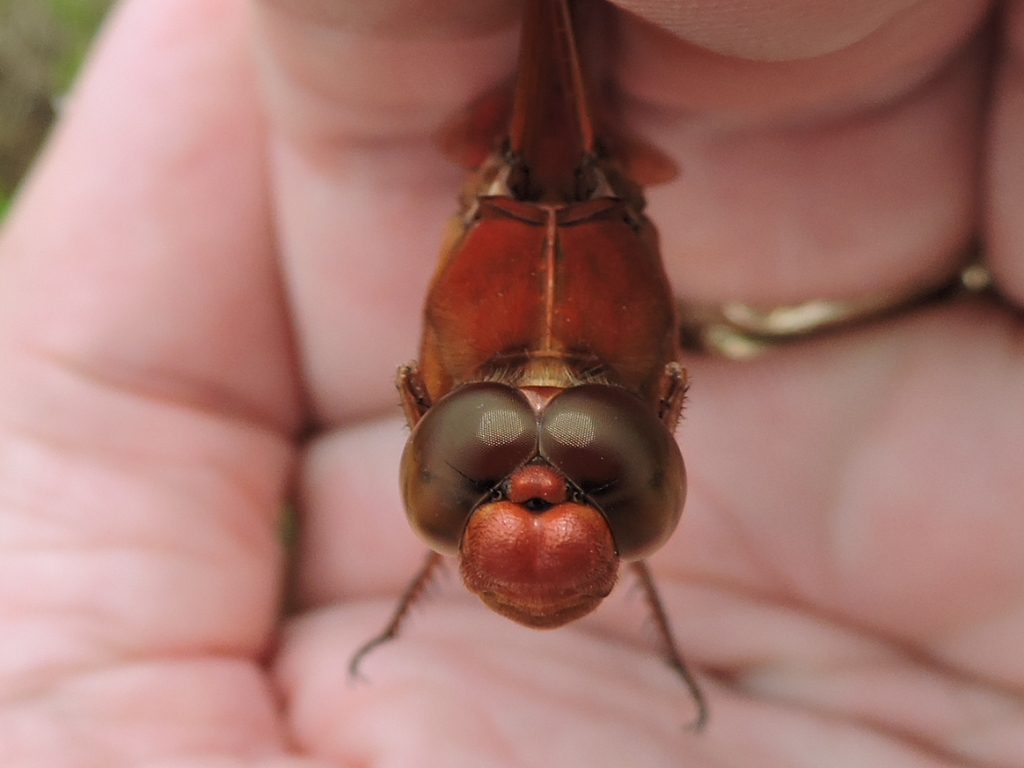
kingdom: Animalia
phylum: Arthropoda
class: Insecta
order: Odonata
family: Libellulidae
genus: Libellula
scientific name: Libellula croceipennis
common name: Neon skimmer
